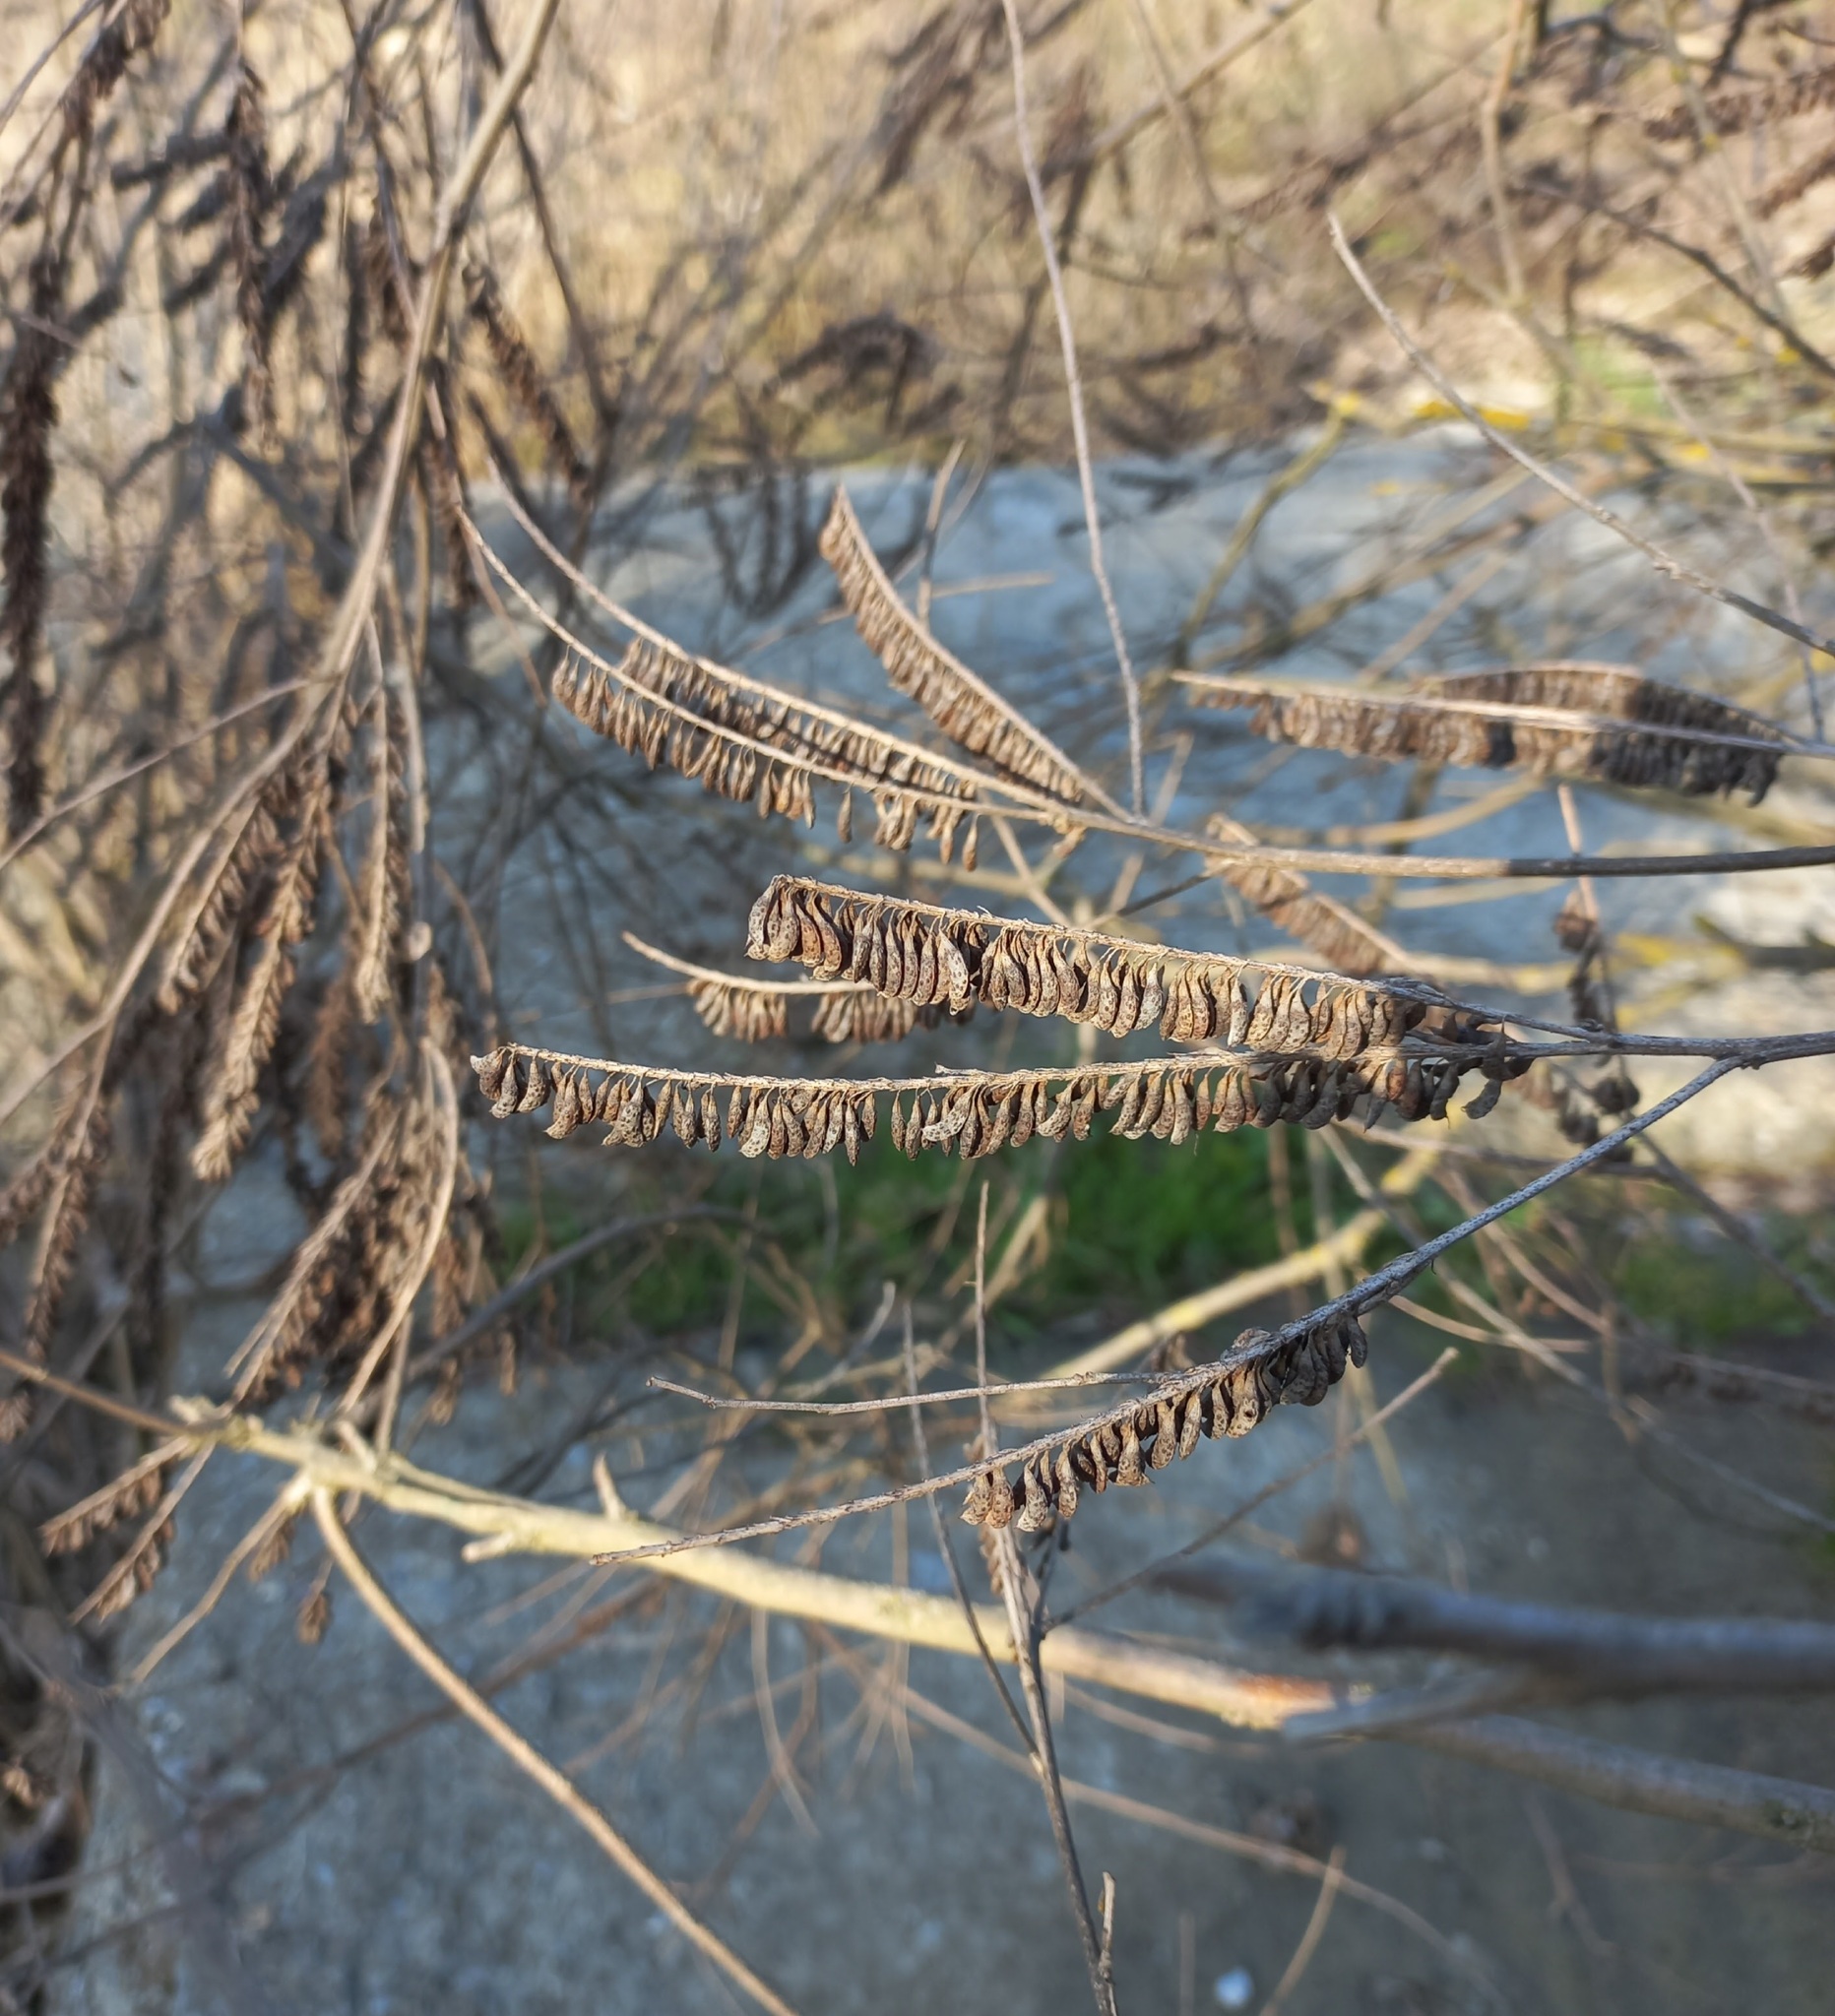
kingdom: Plantae
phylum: Tracheophyta
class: Magnoliopsida
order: Fabales
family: Fabaceae
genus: Amorpha
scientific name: Amorpha fruticosa
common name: False indigo
